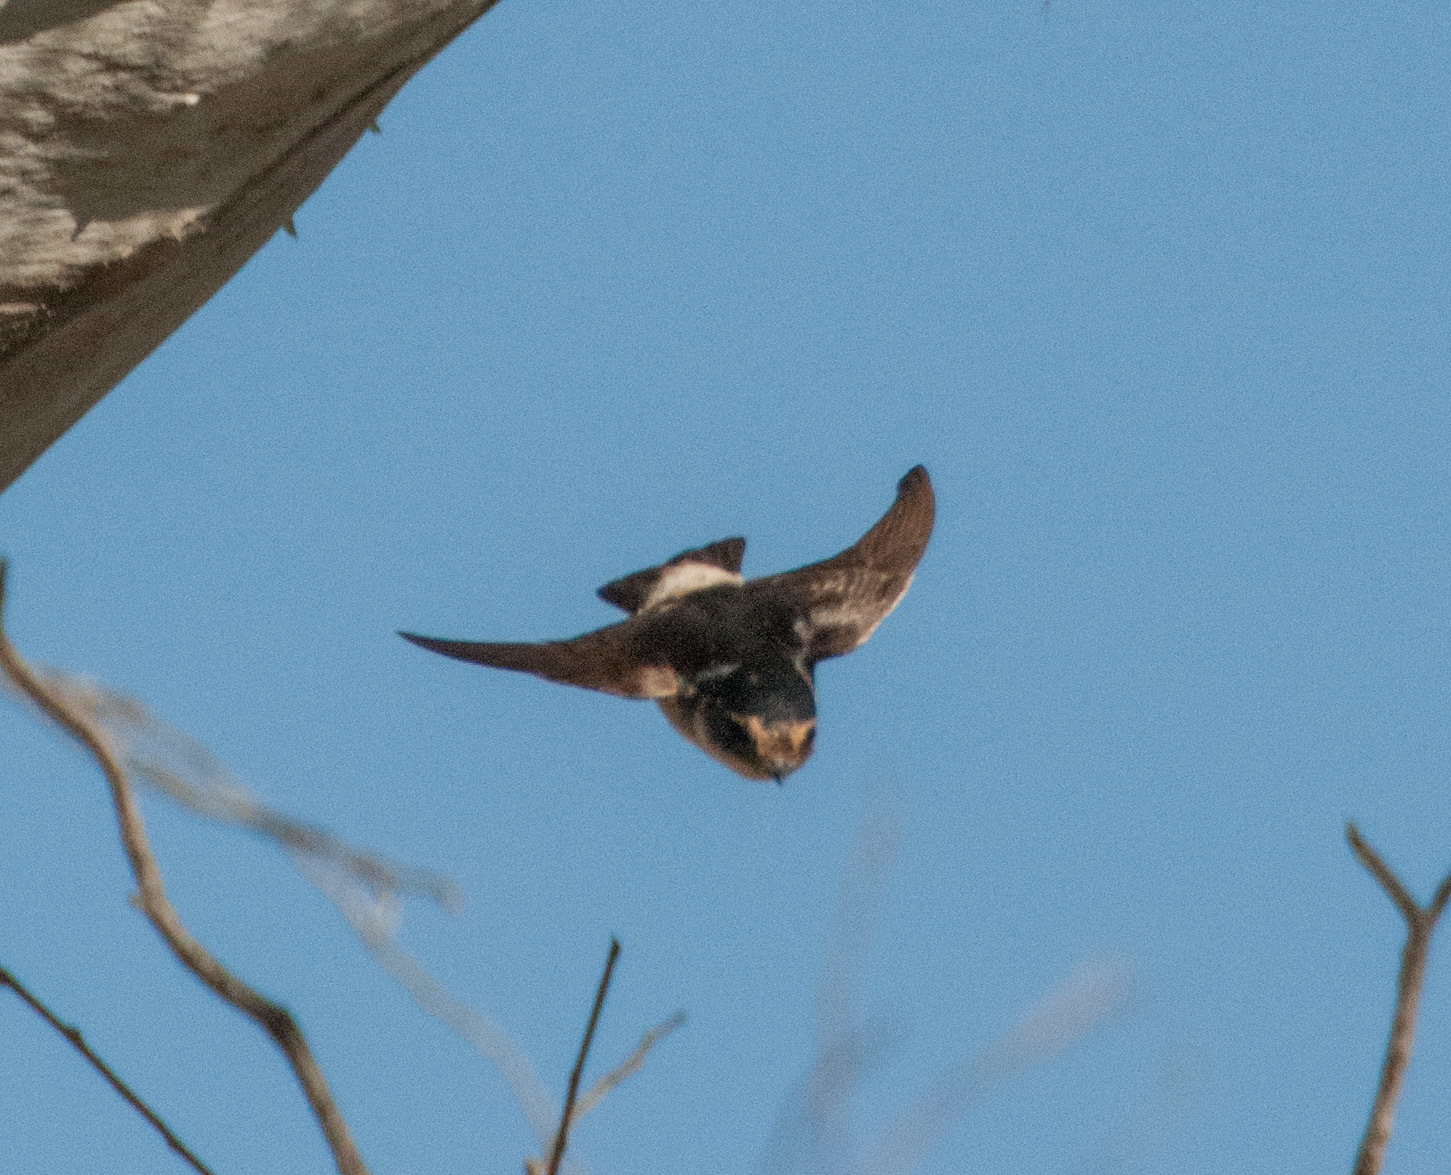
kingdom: Animalia
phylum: Chordata
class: Aves
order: Passeriformes
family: Hirundinidae
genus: Petrochelidon
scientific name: Petrochelidon nigricans
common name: Tree martin
